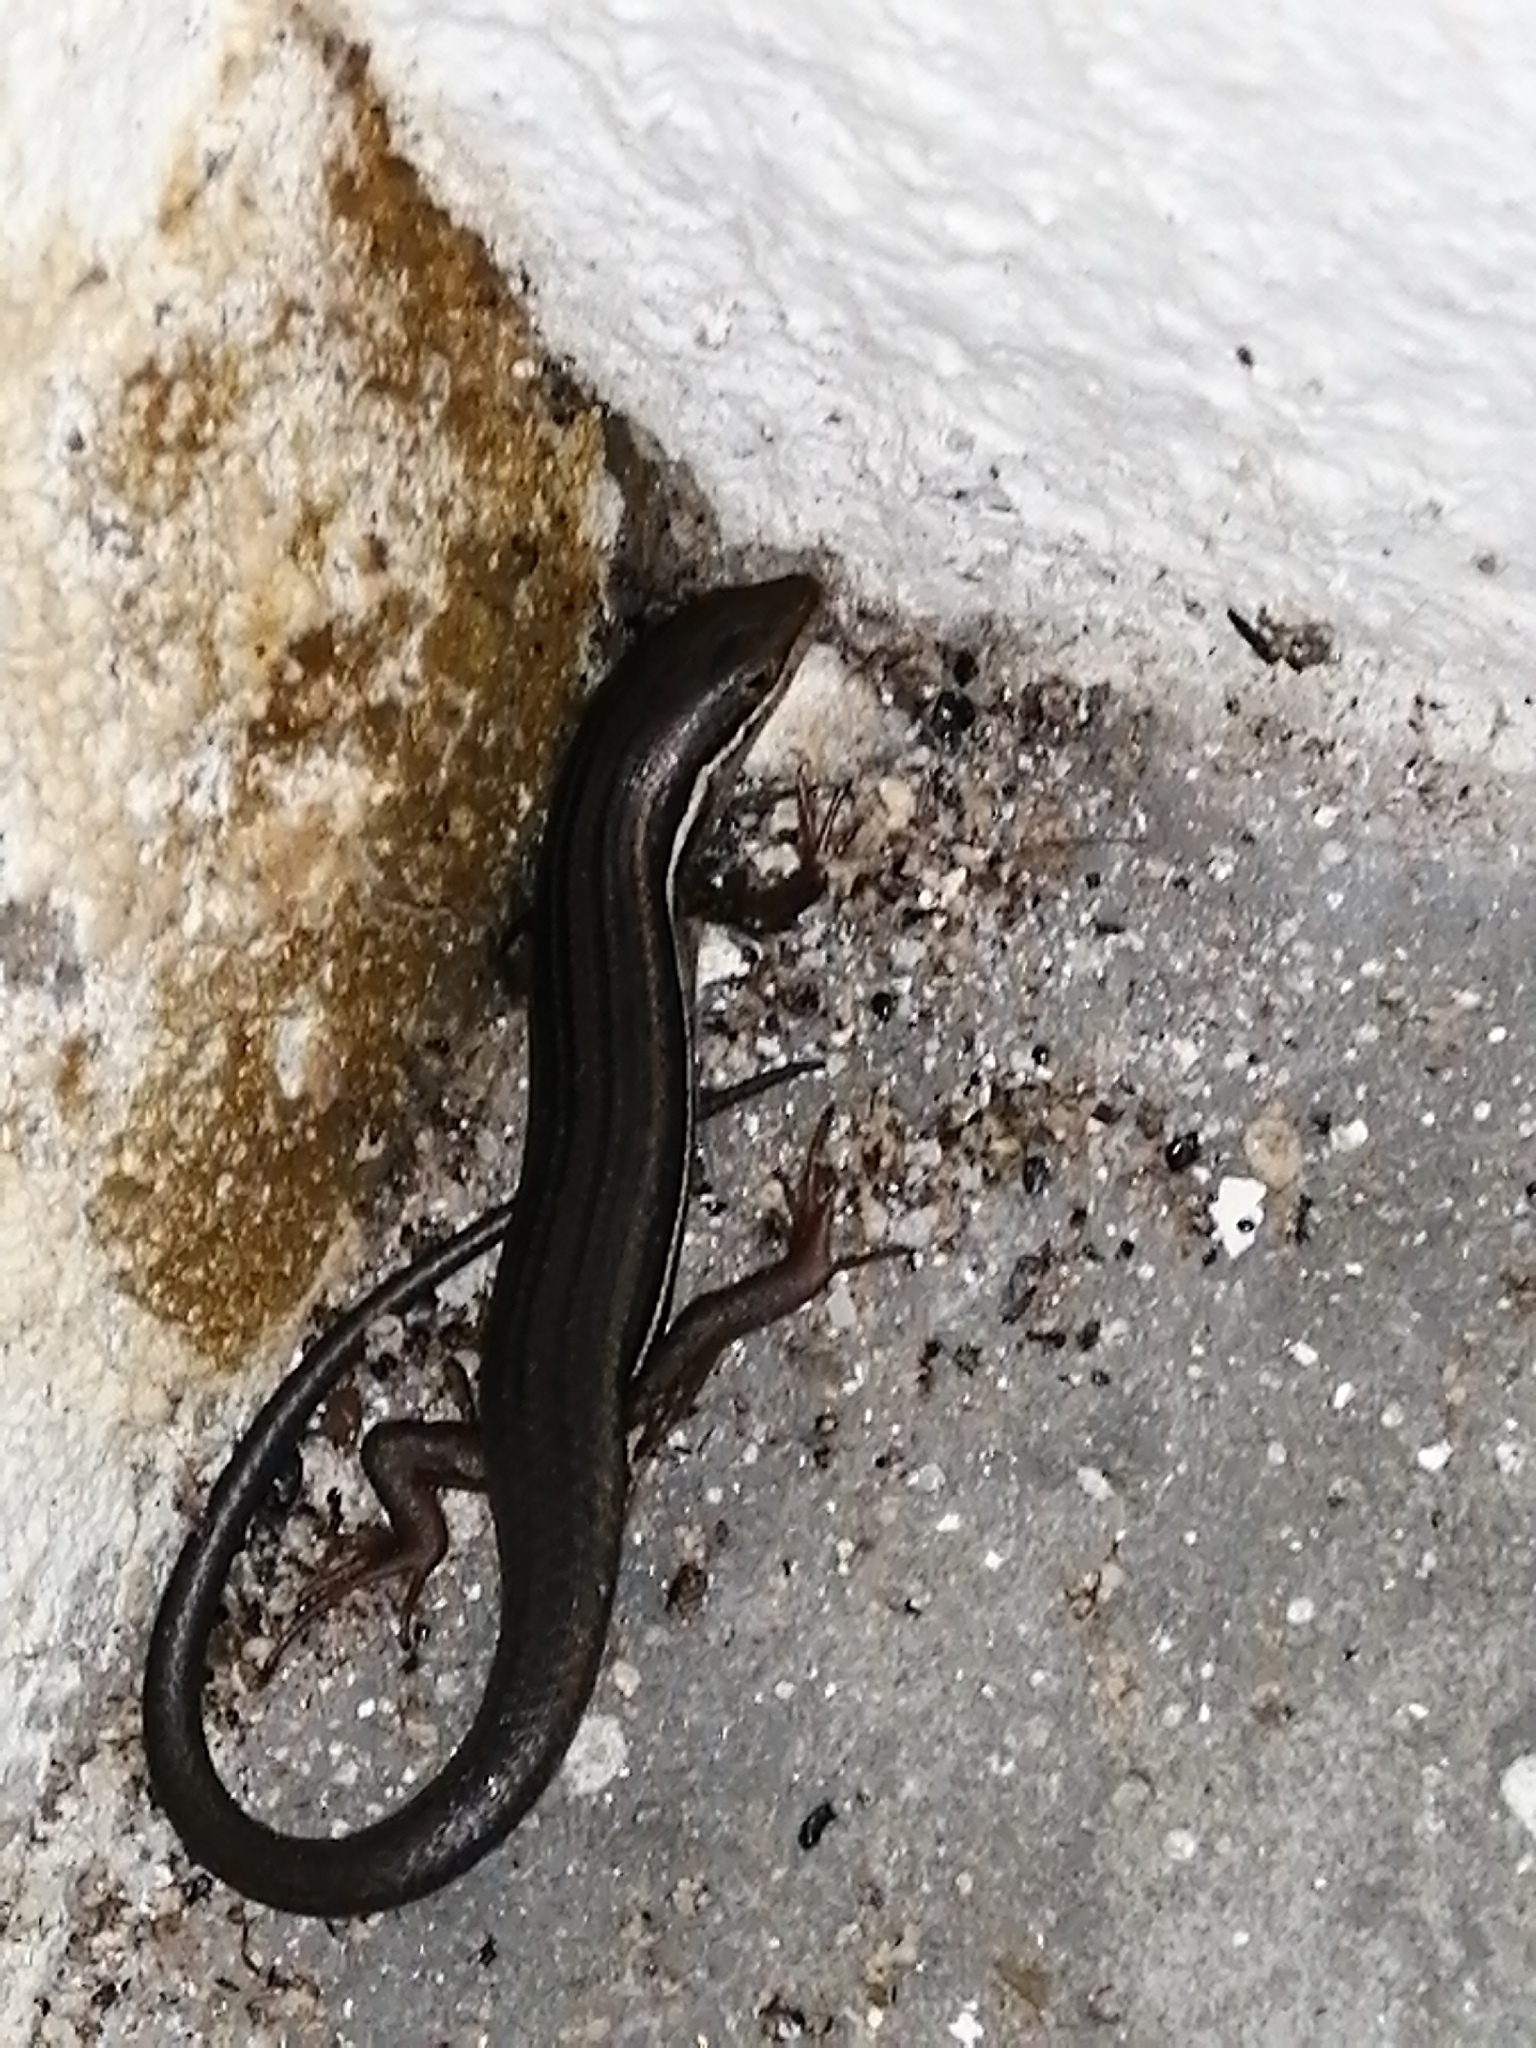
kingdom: Animalia
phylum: Chordata
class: Squamata
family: Scincidae
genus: Trachylepis
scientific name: Trachylepis homalocephala
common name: Red-sided skink
